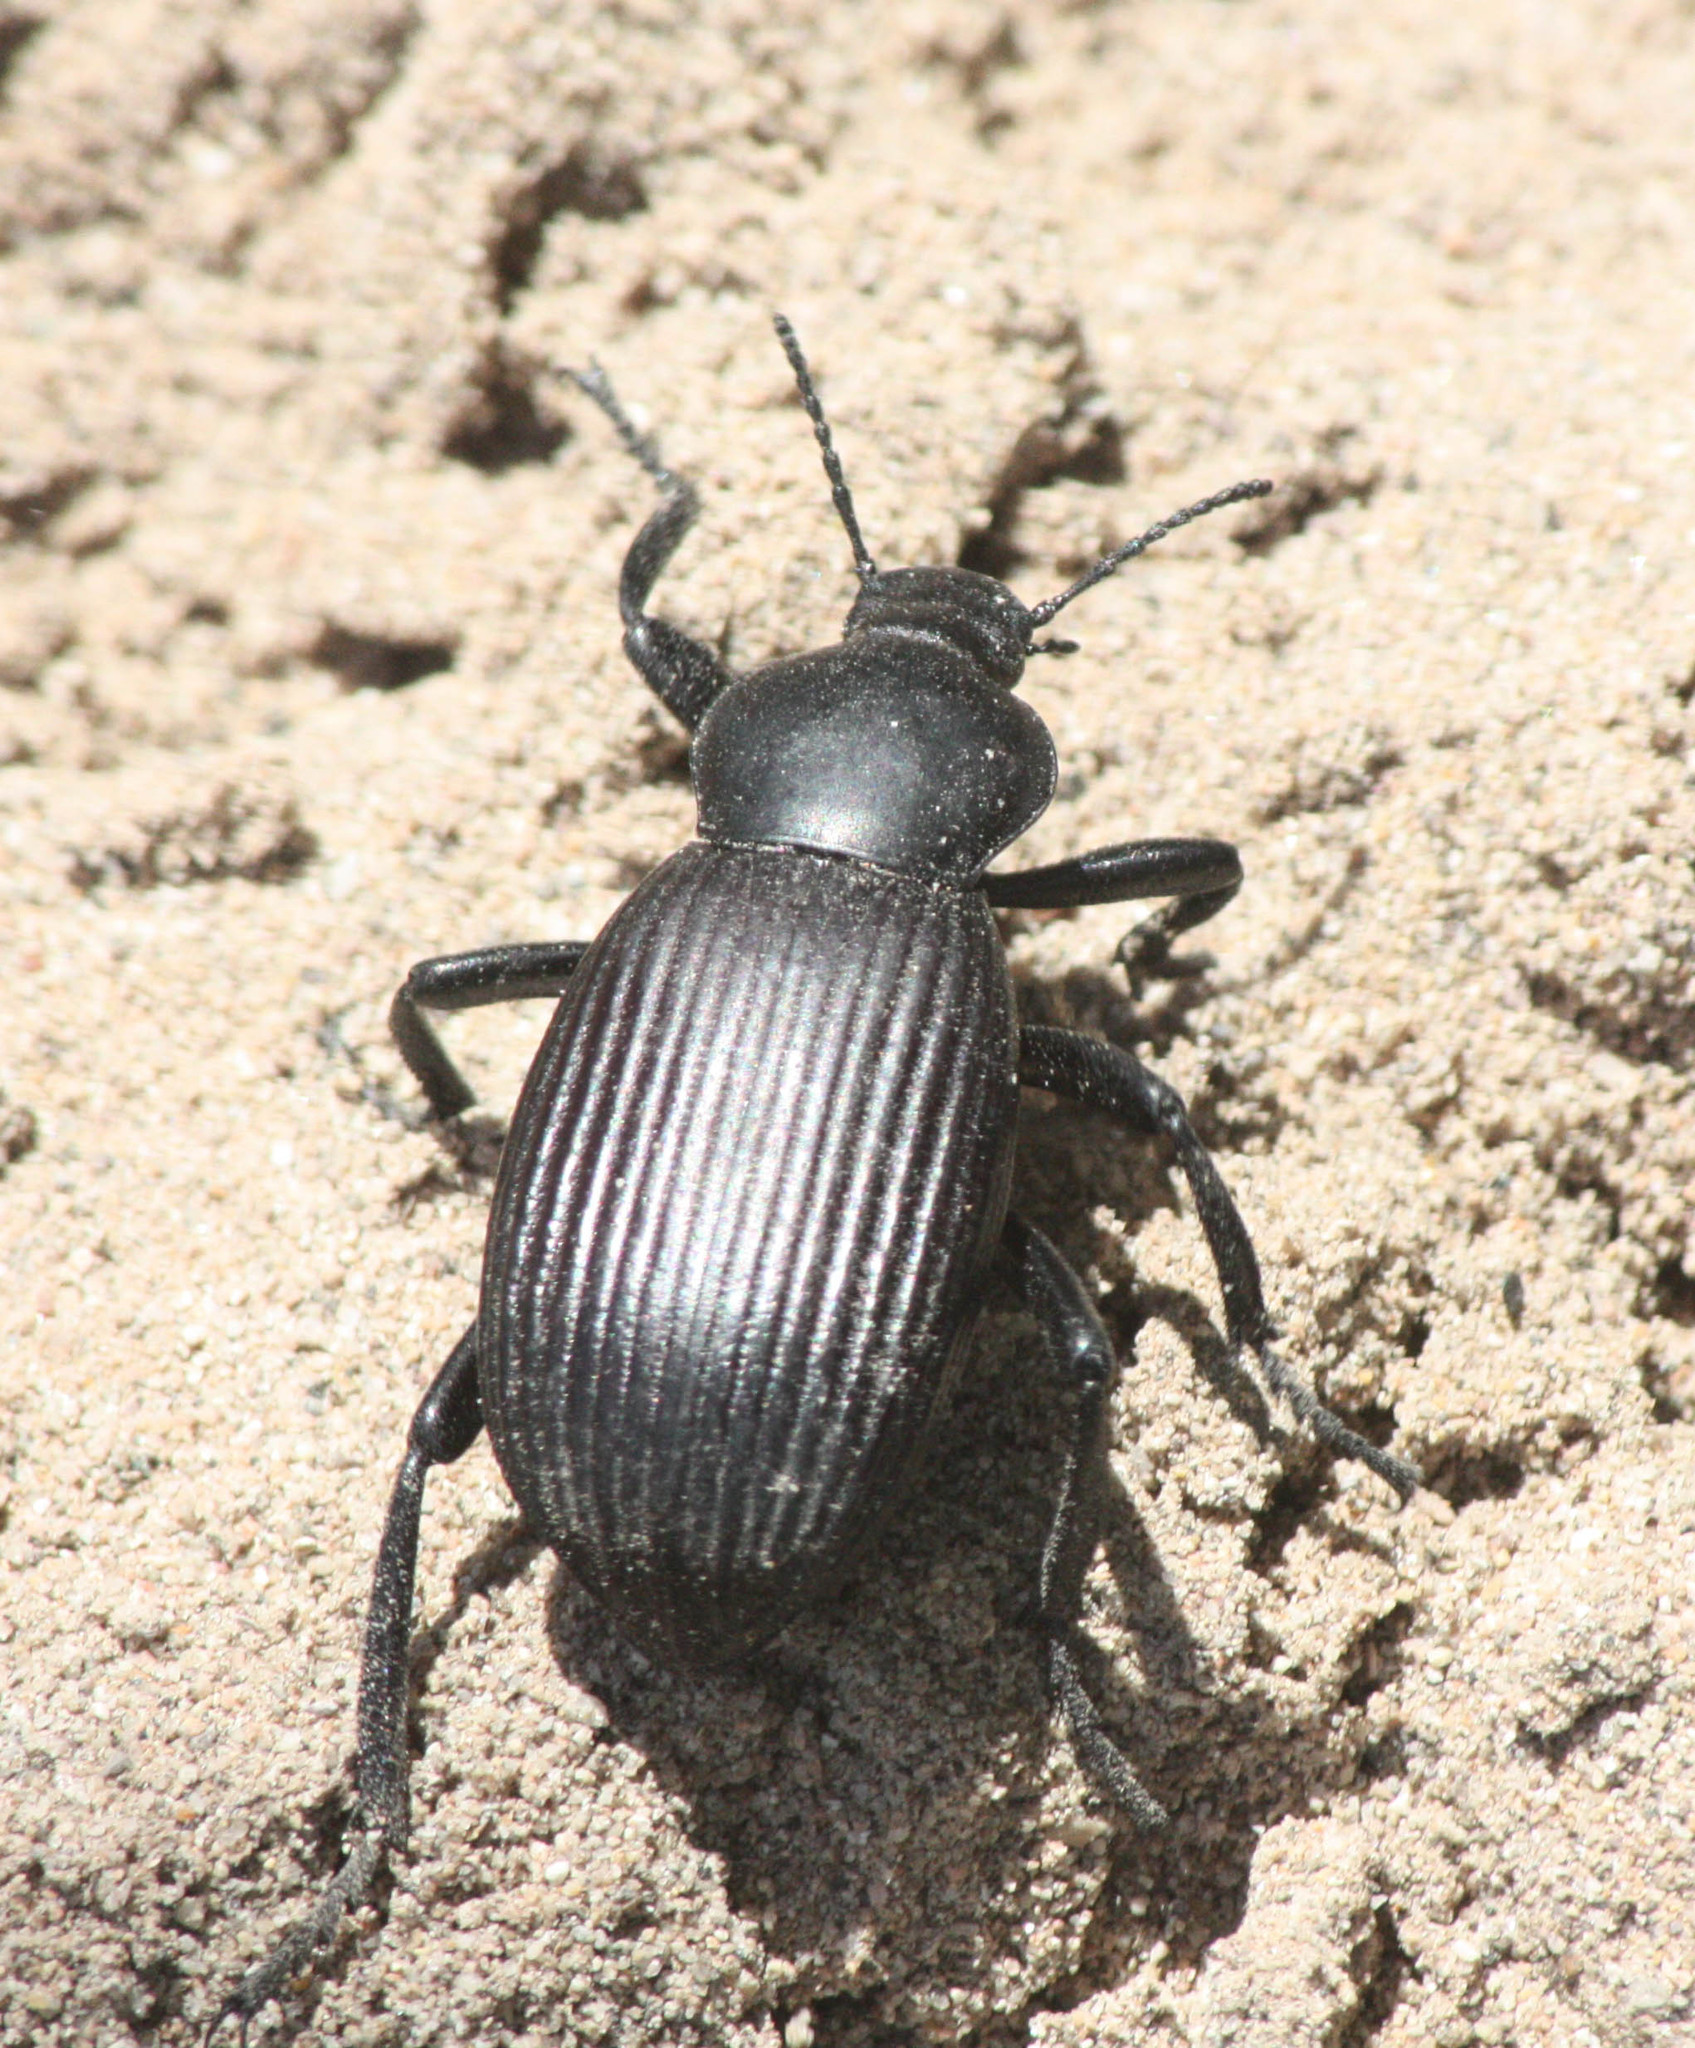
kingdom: Animalia
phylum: Arthropoda
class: Insecta
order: Coleoptera
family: Tenebrionidae
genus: Eleodes
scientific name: Eleodes obscura
